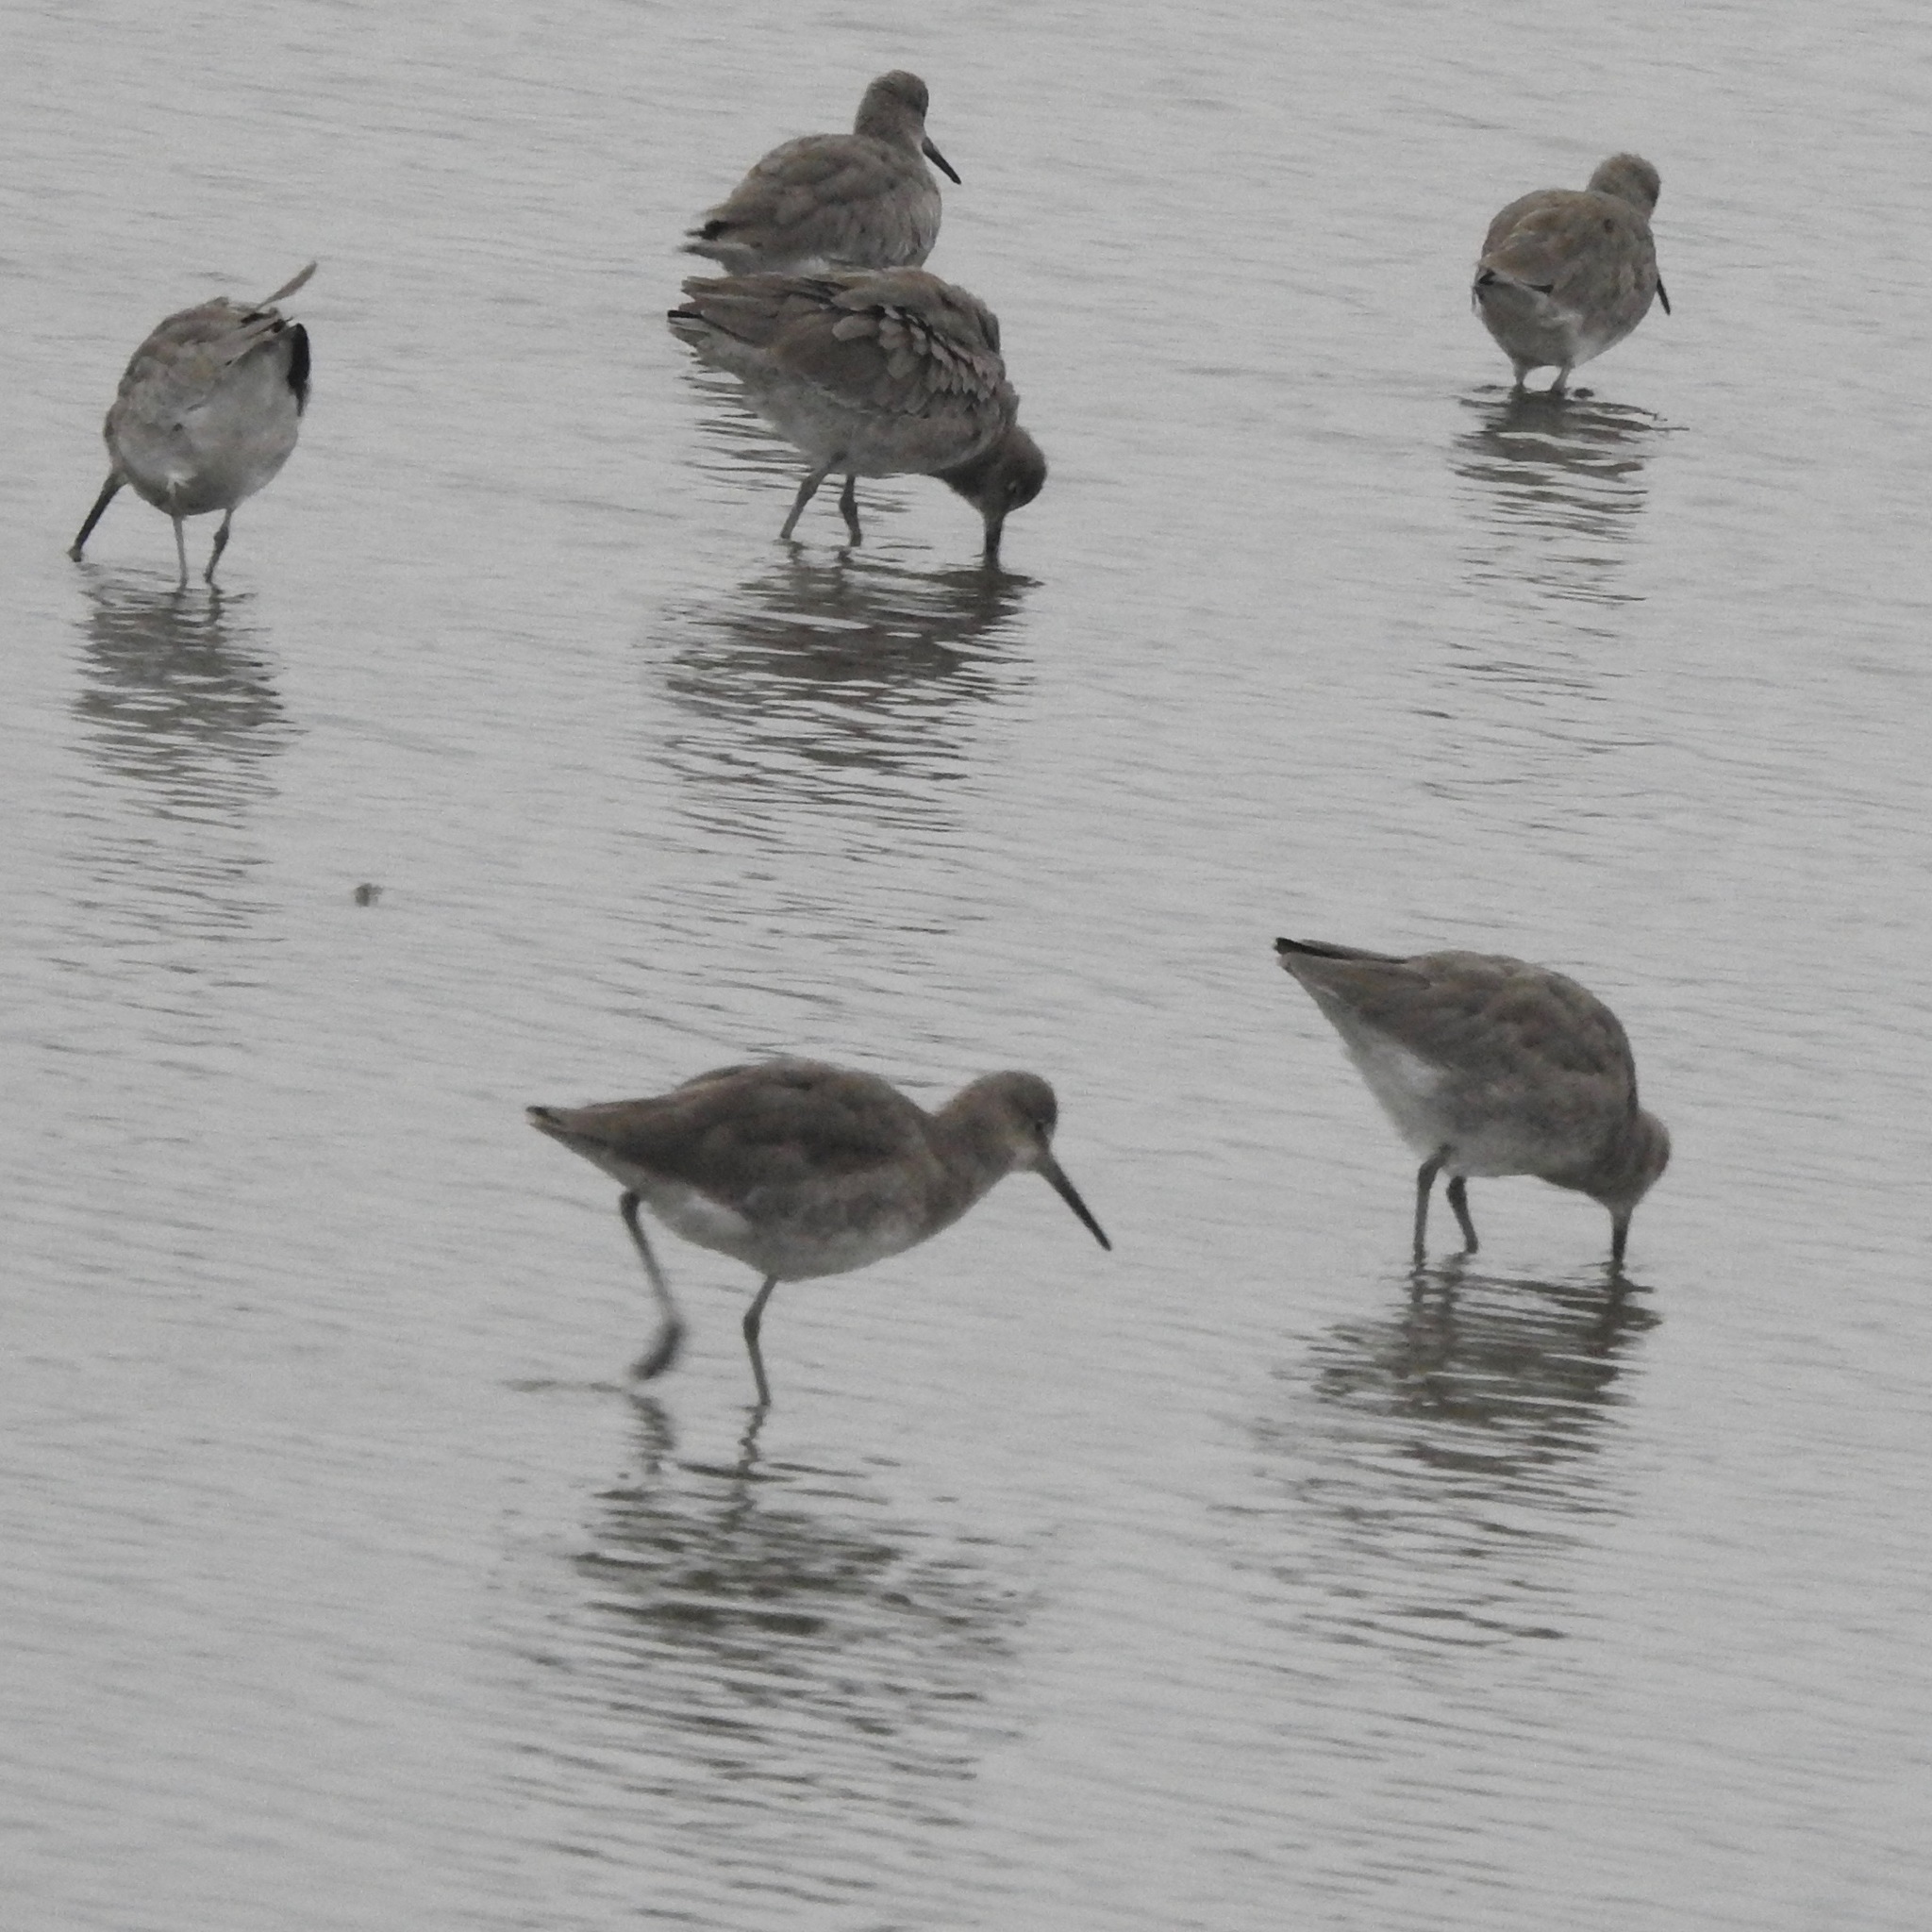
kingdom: Animalia
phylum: Chordata
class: Aves
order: Charadriiformes
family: Scolopacidae
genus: Tringa
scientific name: Tringa semipalmata
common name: Willet
